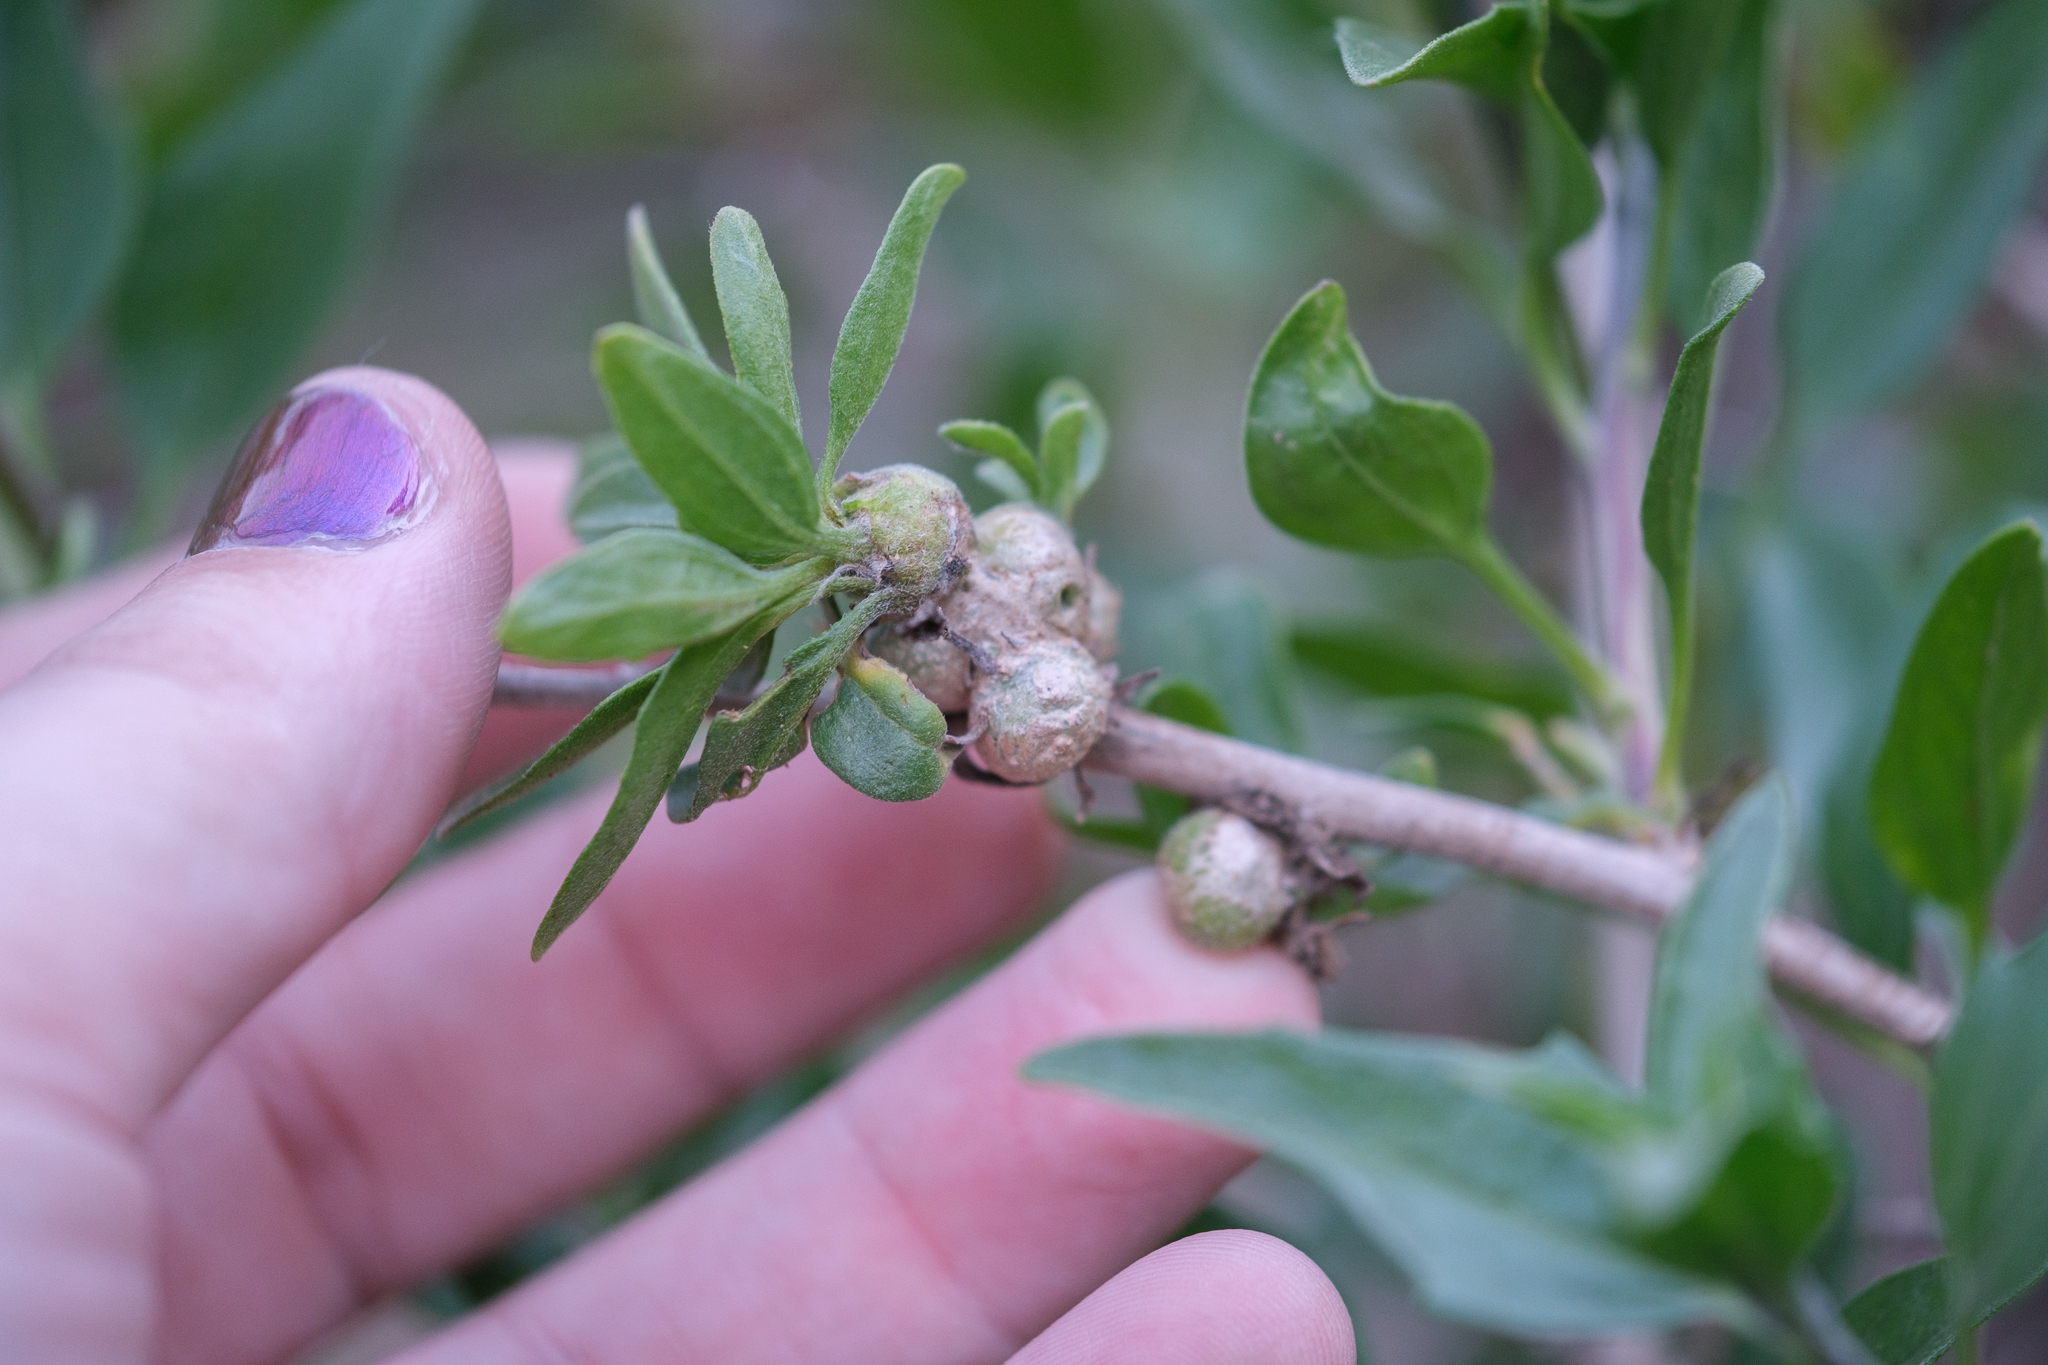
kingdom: Plantae
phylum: Tracheophyta
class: Magnoliopsida
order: Asterales
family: Asteraceae
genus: Encelia
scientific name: Encelia californica
